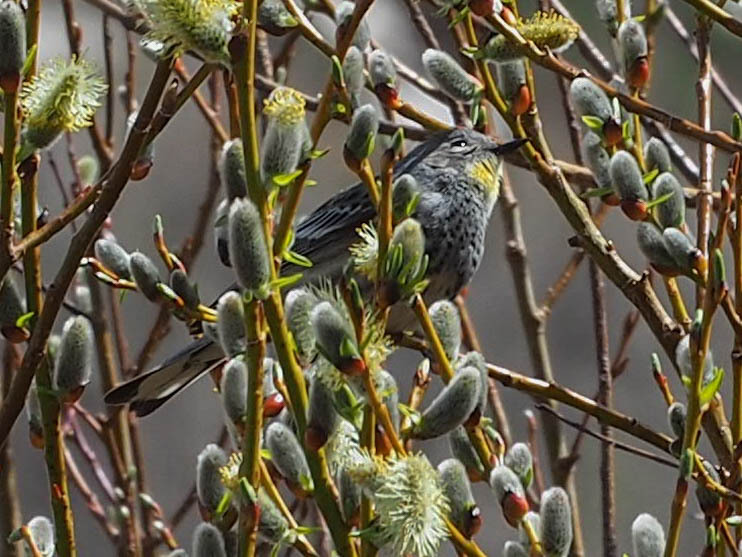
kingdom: Animalia
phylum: Chordata
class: Aves
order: Passeriformes
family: Parulidae
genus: Setophaga
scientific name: Setophaga coronata
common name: Myrtle warbler
